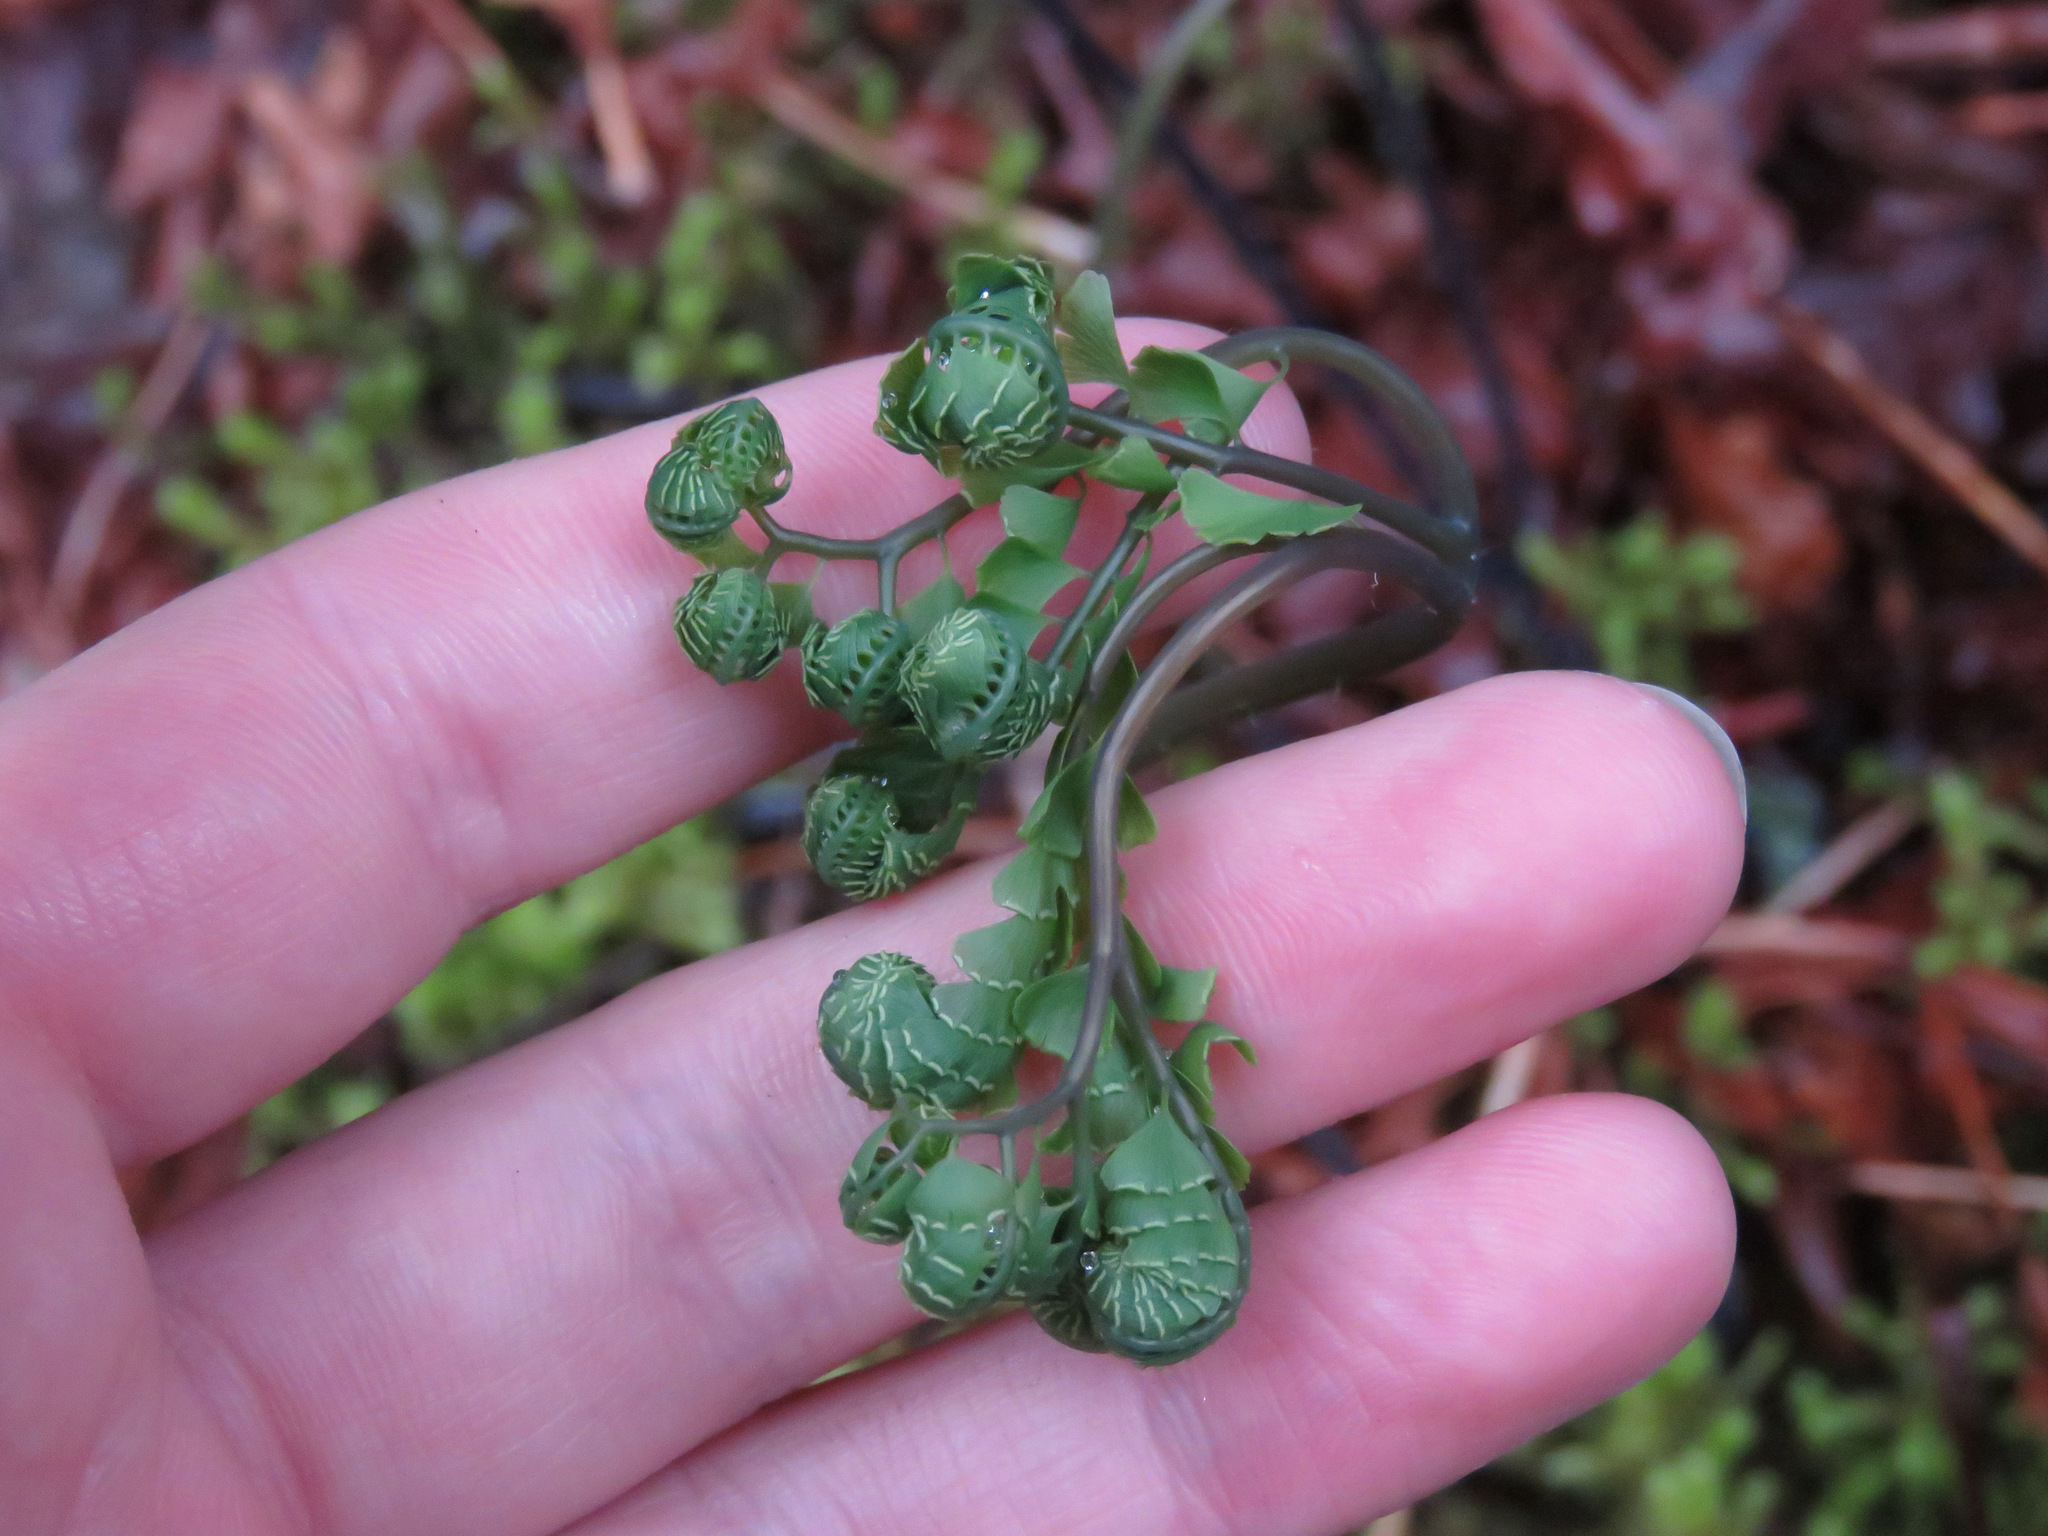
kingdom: Plantae
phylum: Tracheophyta
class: Polypodiopsida
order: Polypodiales
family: Pteridaceae
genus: Adiantum
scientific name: Adiantum aleuticum
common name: Aleutian maidenhair fern
